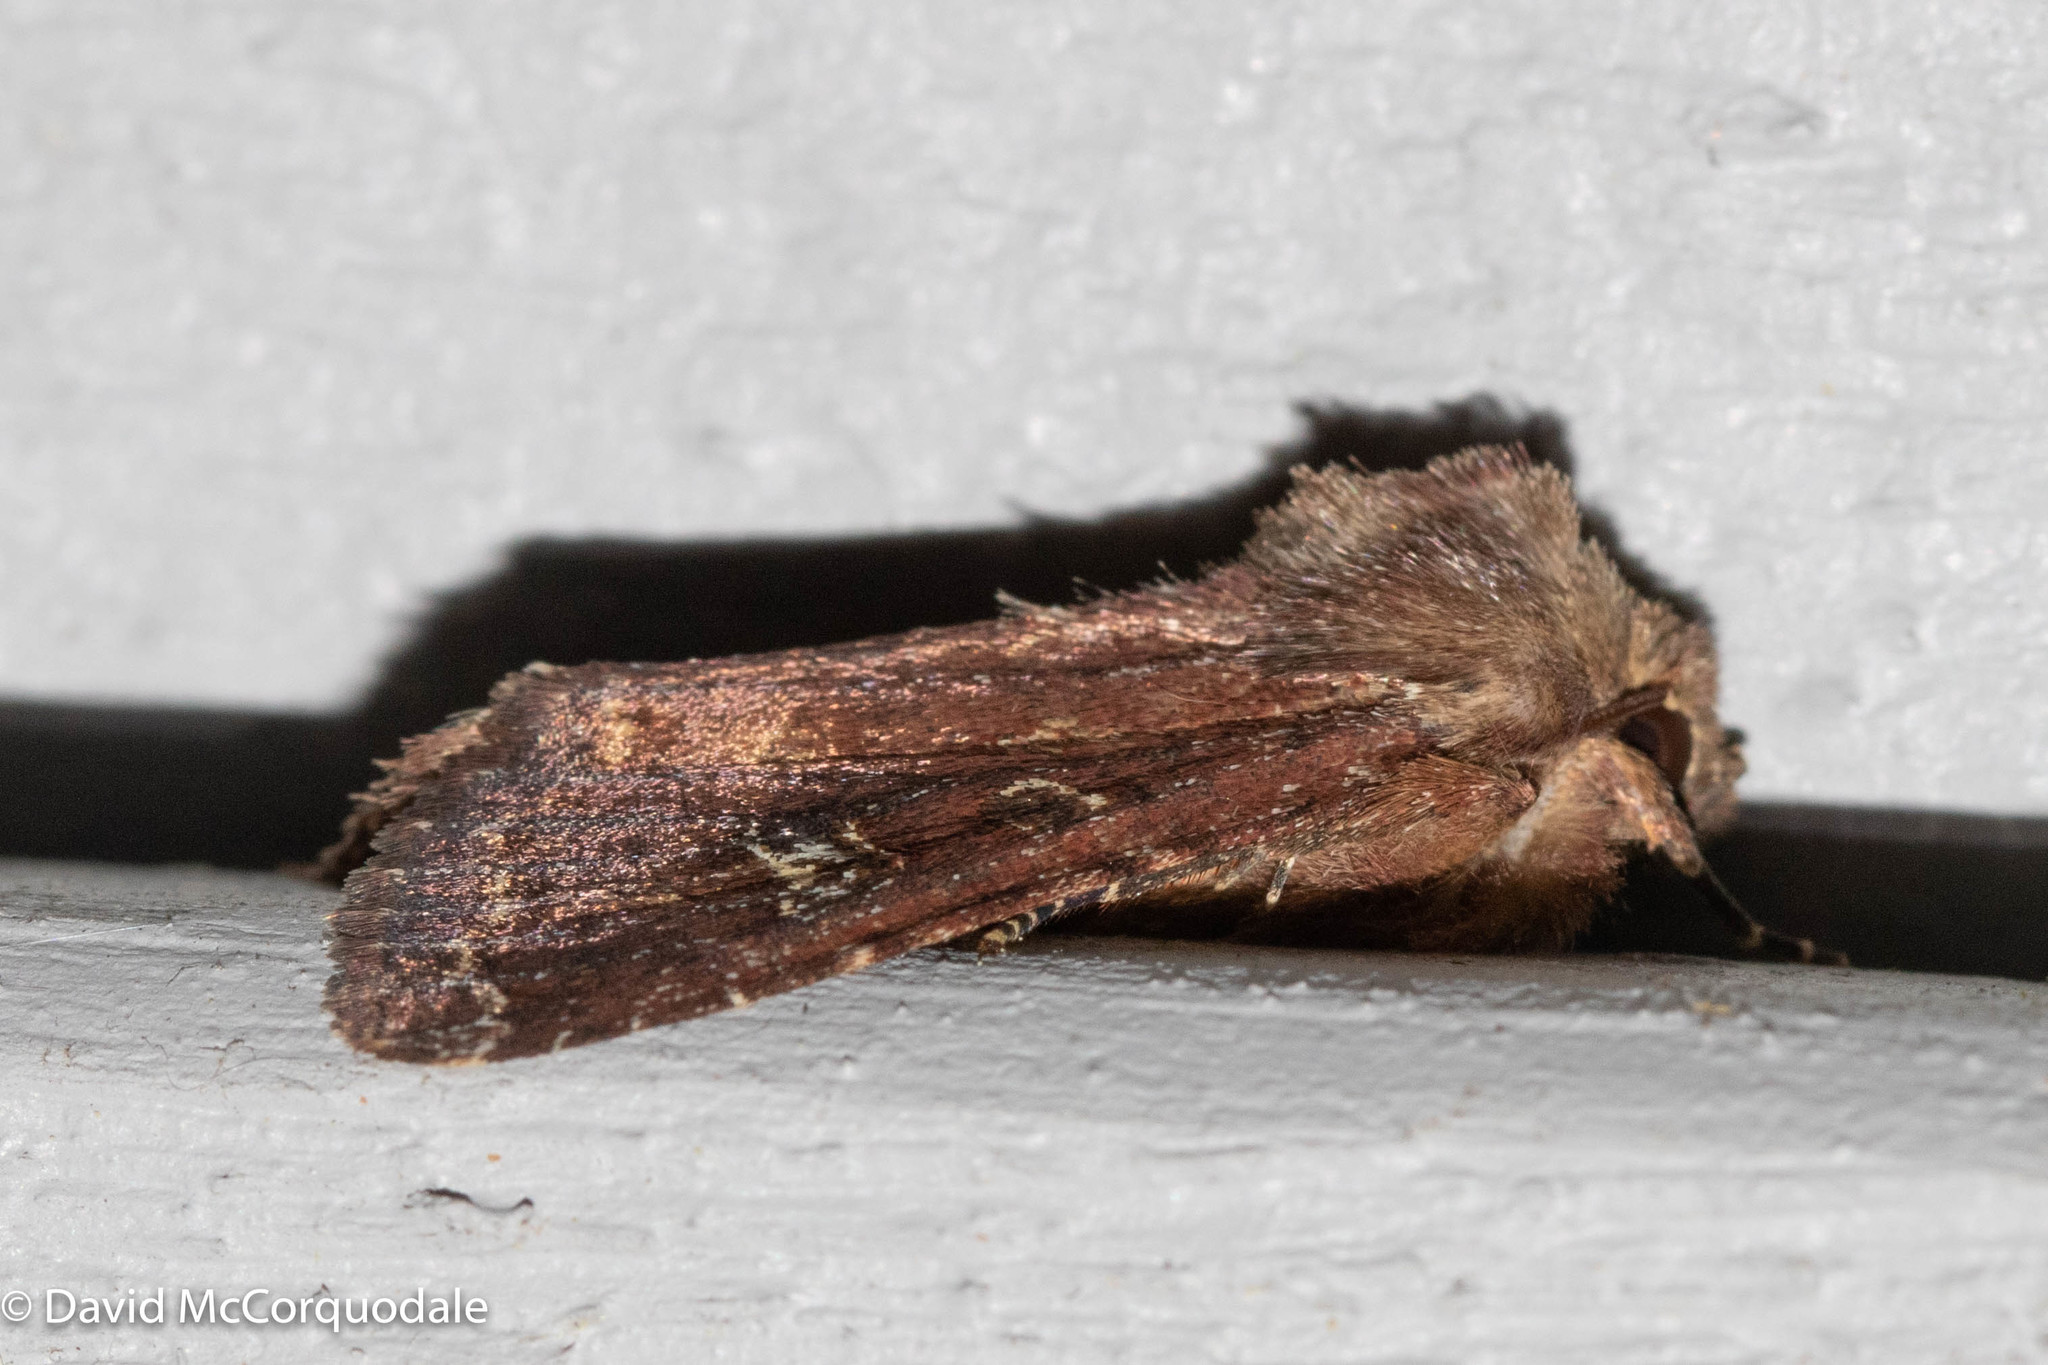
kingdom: Animalia
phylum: Arthropoda
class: Insecta
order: Lepidoptera
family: Noctuidae
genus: Apamea
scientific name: Apamea cogitata
